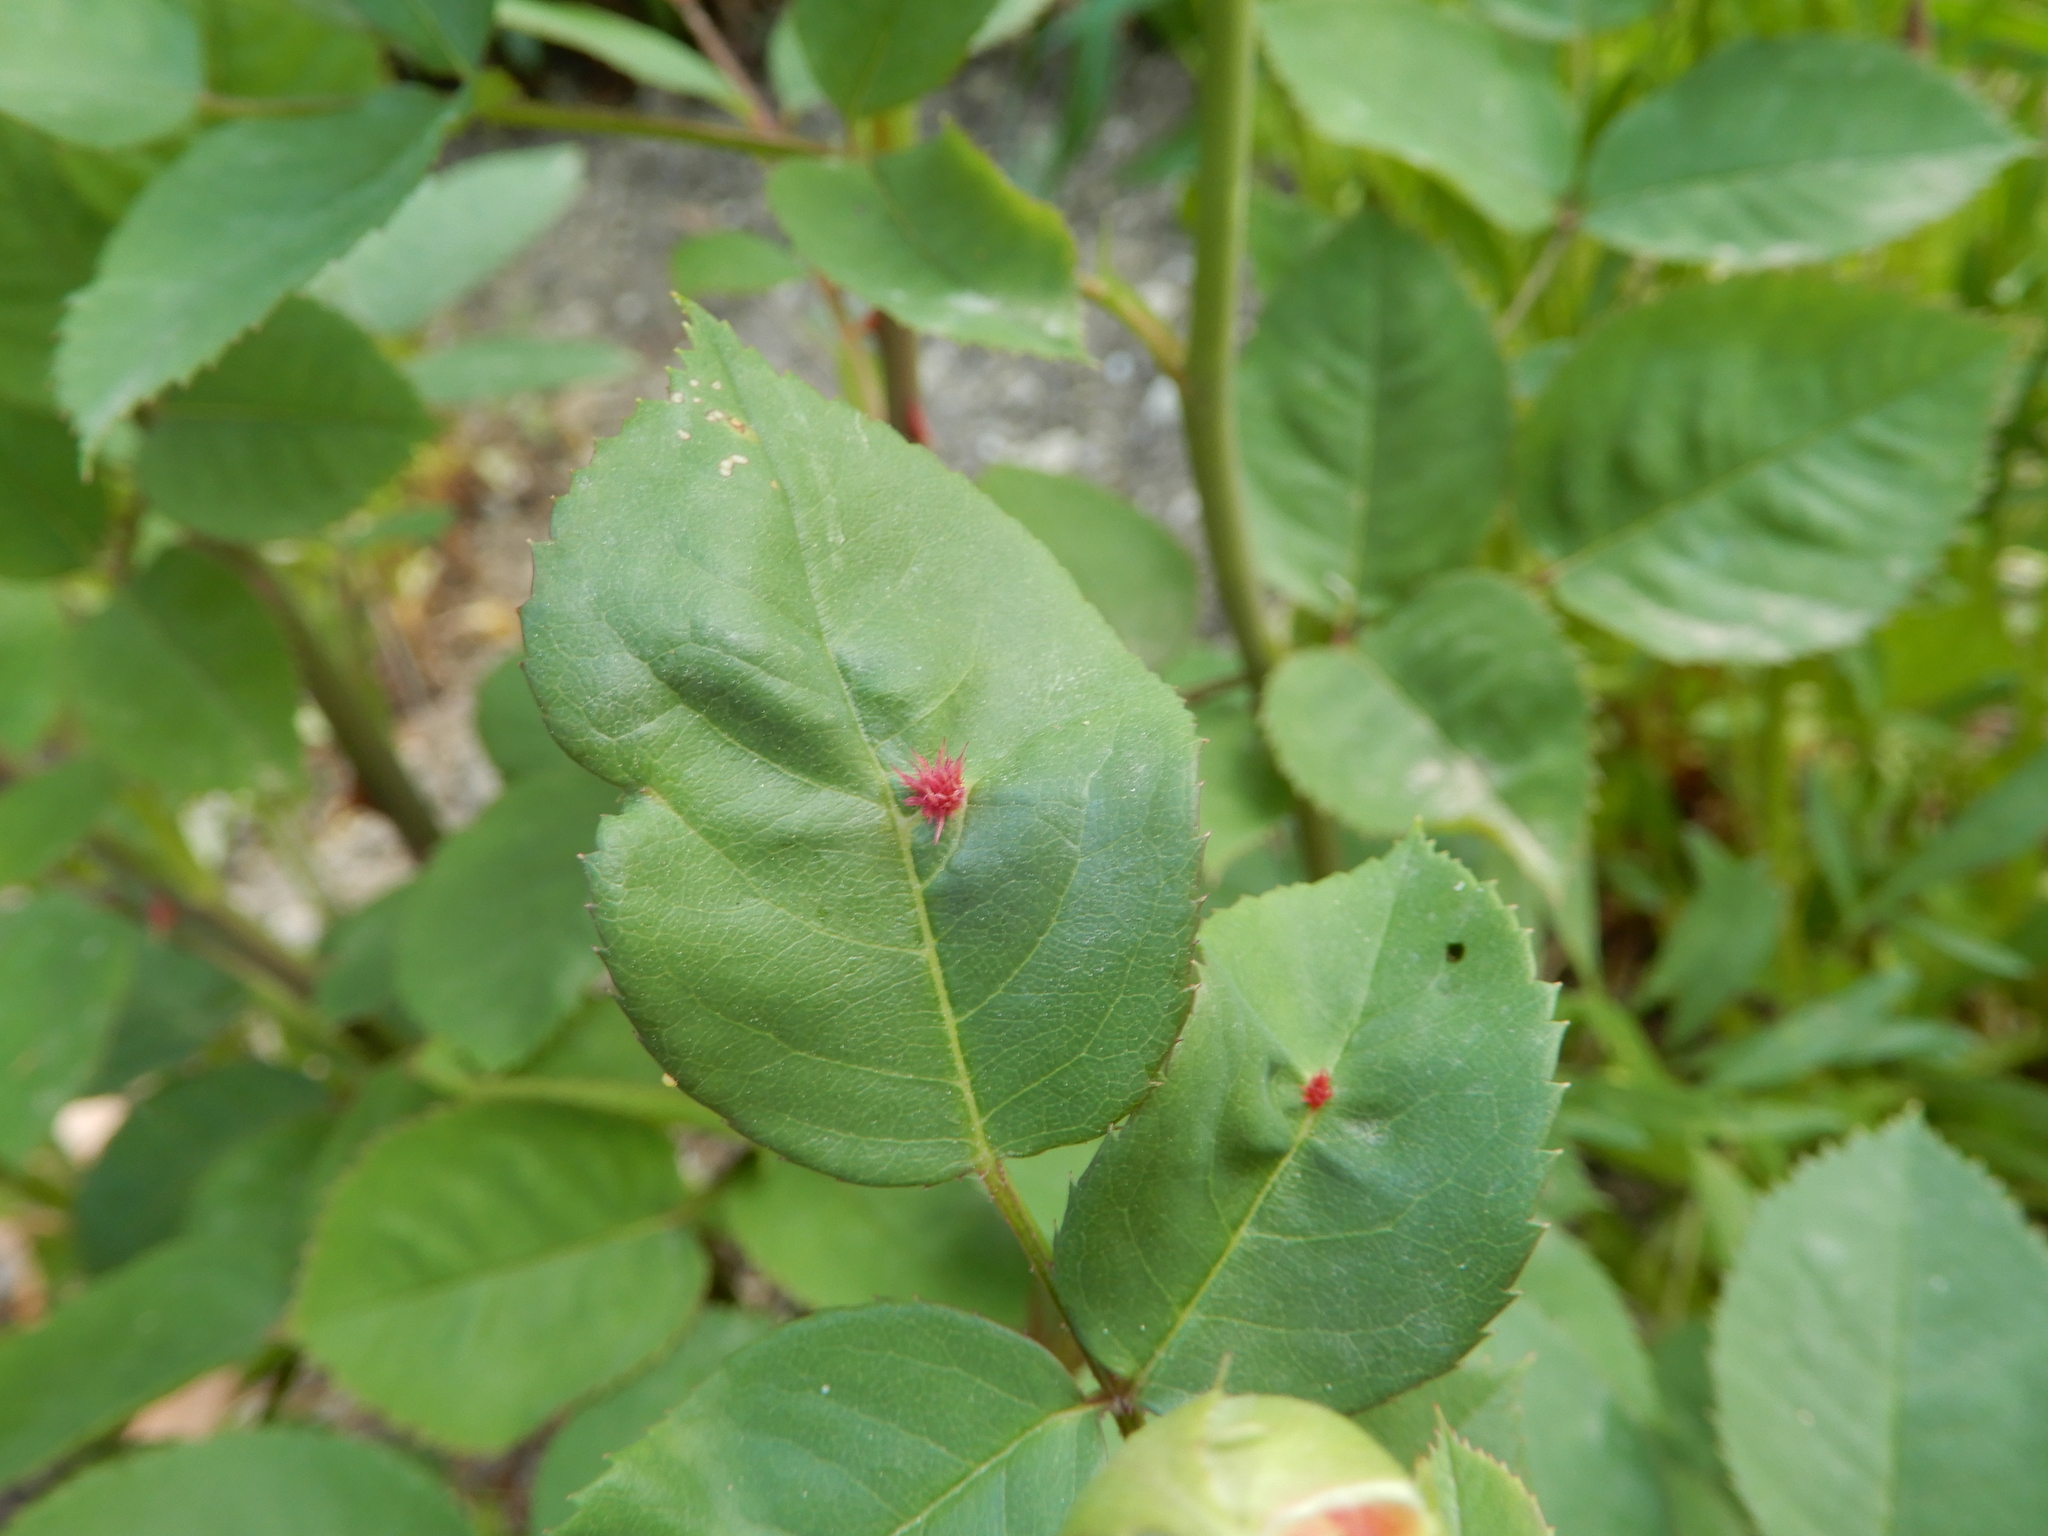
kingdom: Animalia
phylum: Arthropoda
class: Insecta
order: Hymenoptera
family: Cynipidae
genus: Diplolepis
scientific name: Diplolepis rosae
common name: Bedeguar gall
